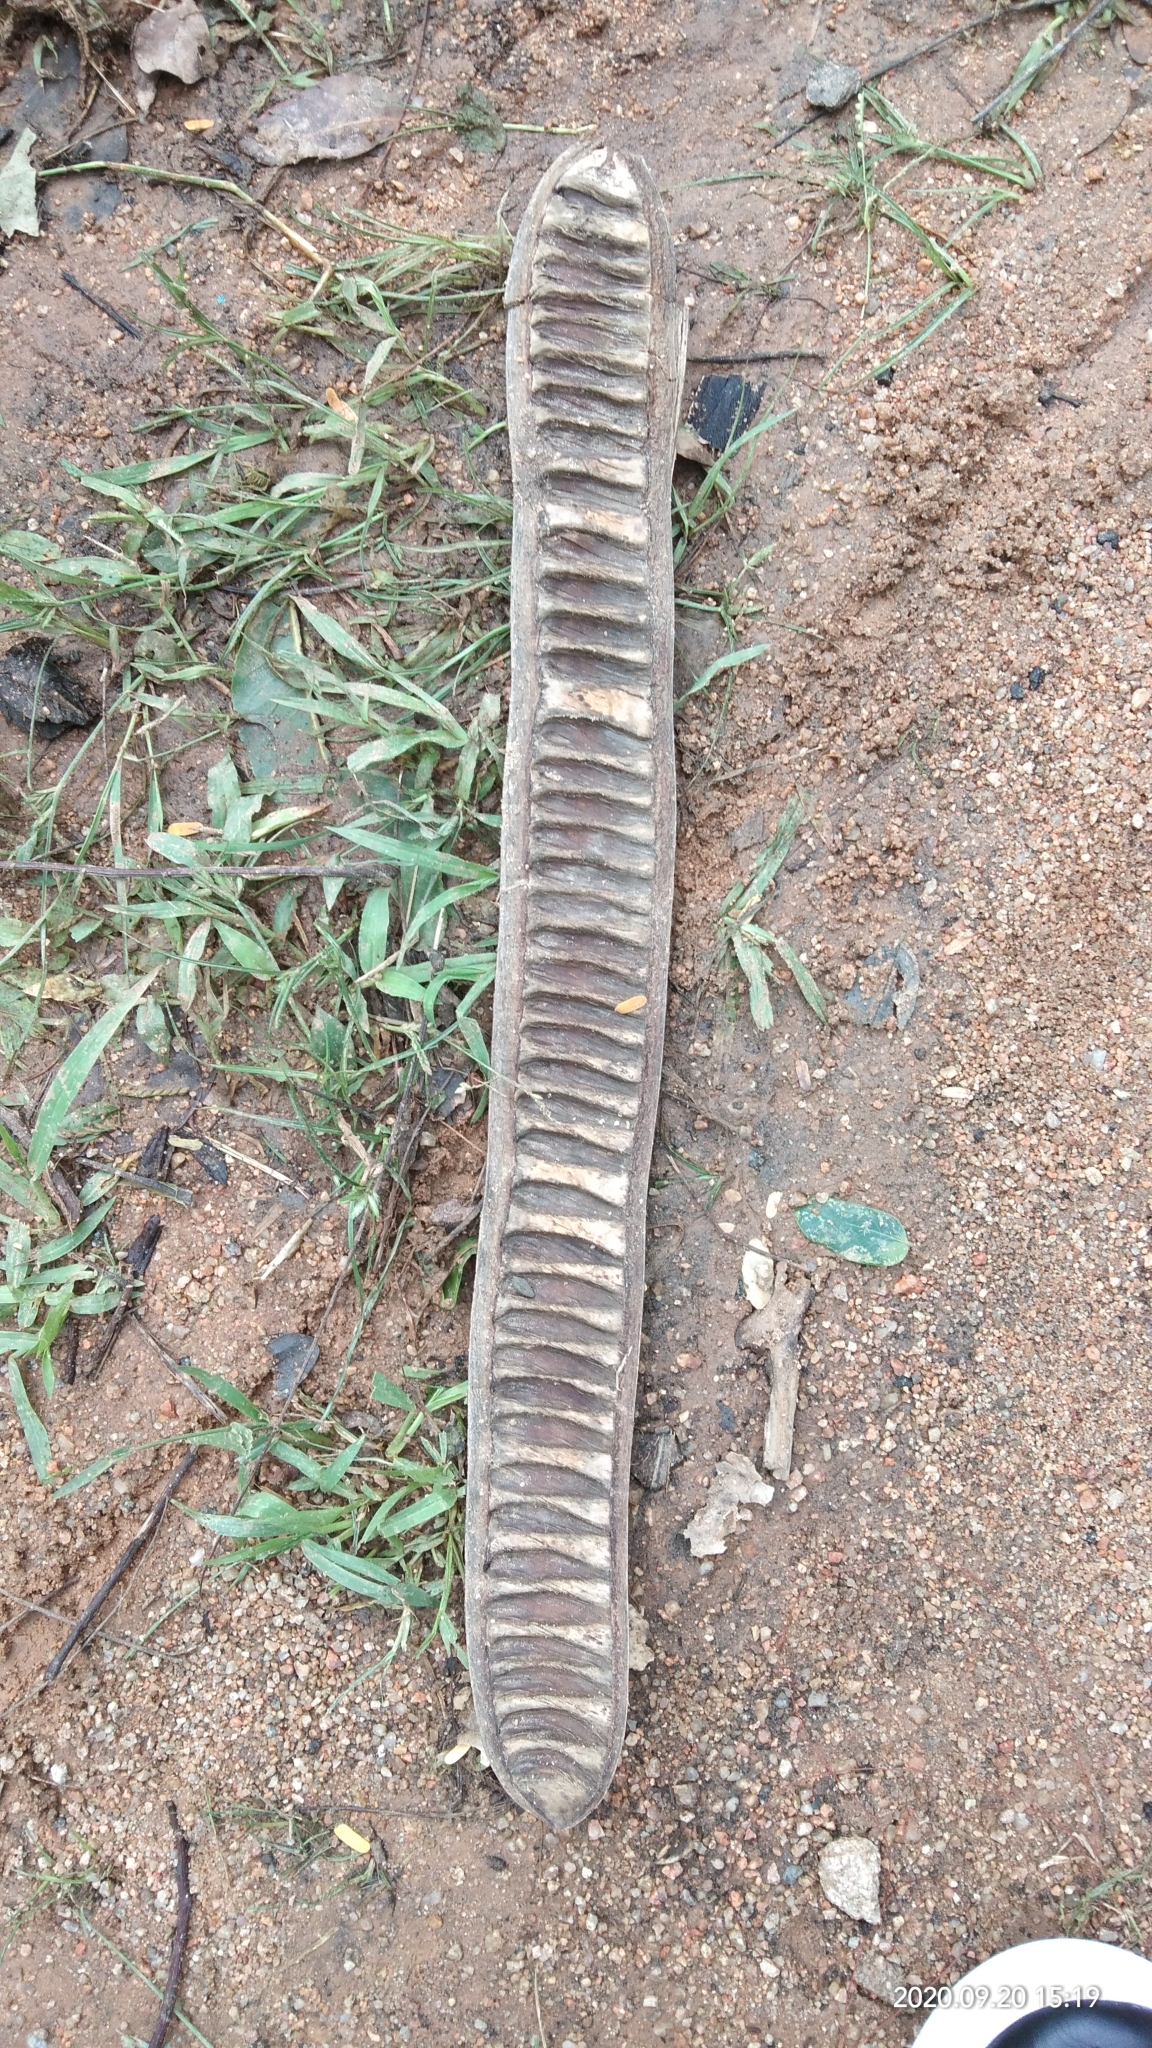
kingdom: Plantae
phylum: Tracheophyta
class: Magnoliopsida
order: Fabales
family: Fabaceae
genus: Delonix
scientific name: Delonix regia
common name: Royal poinciana
